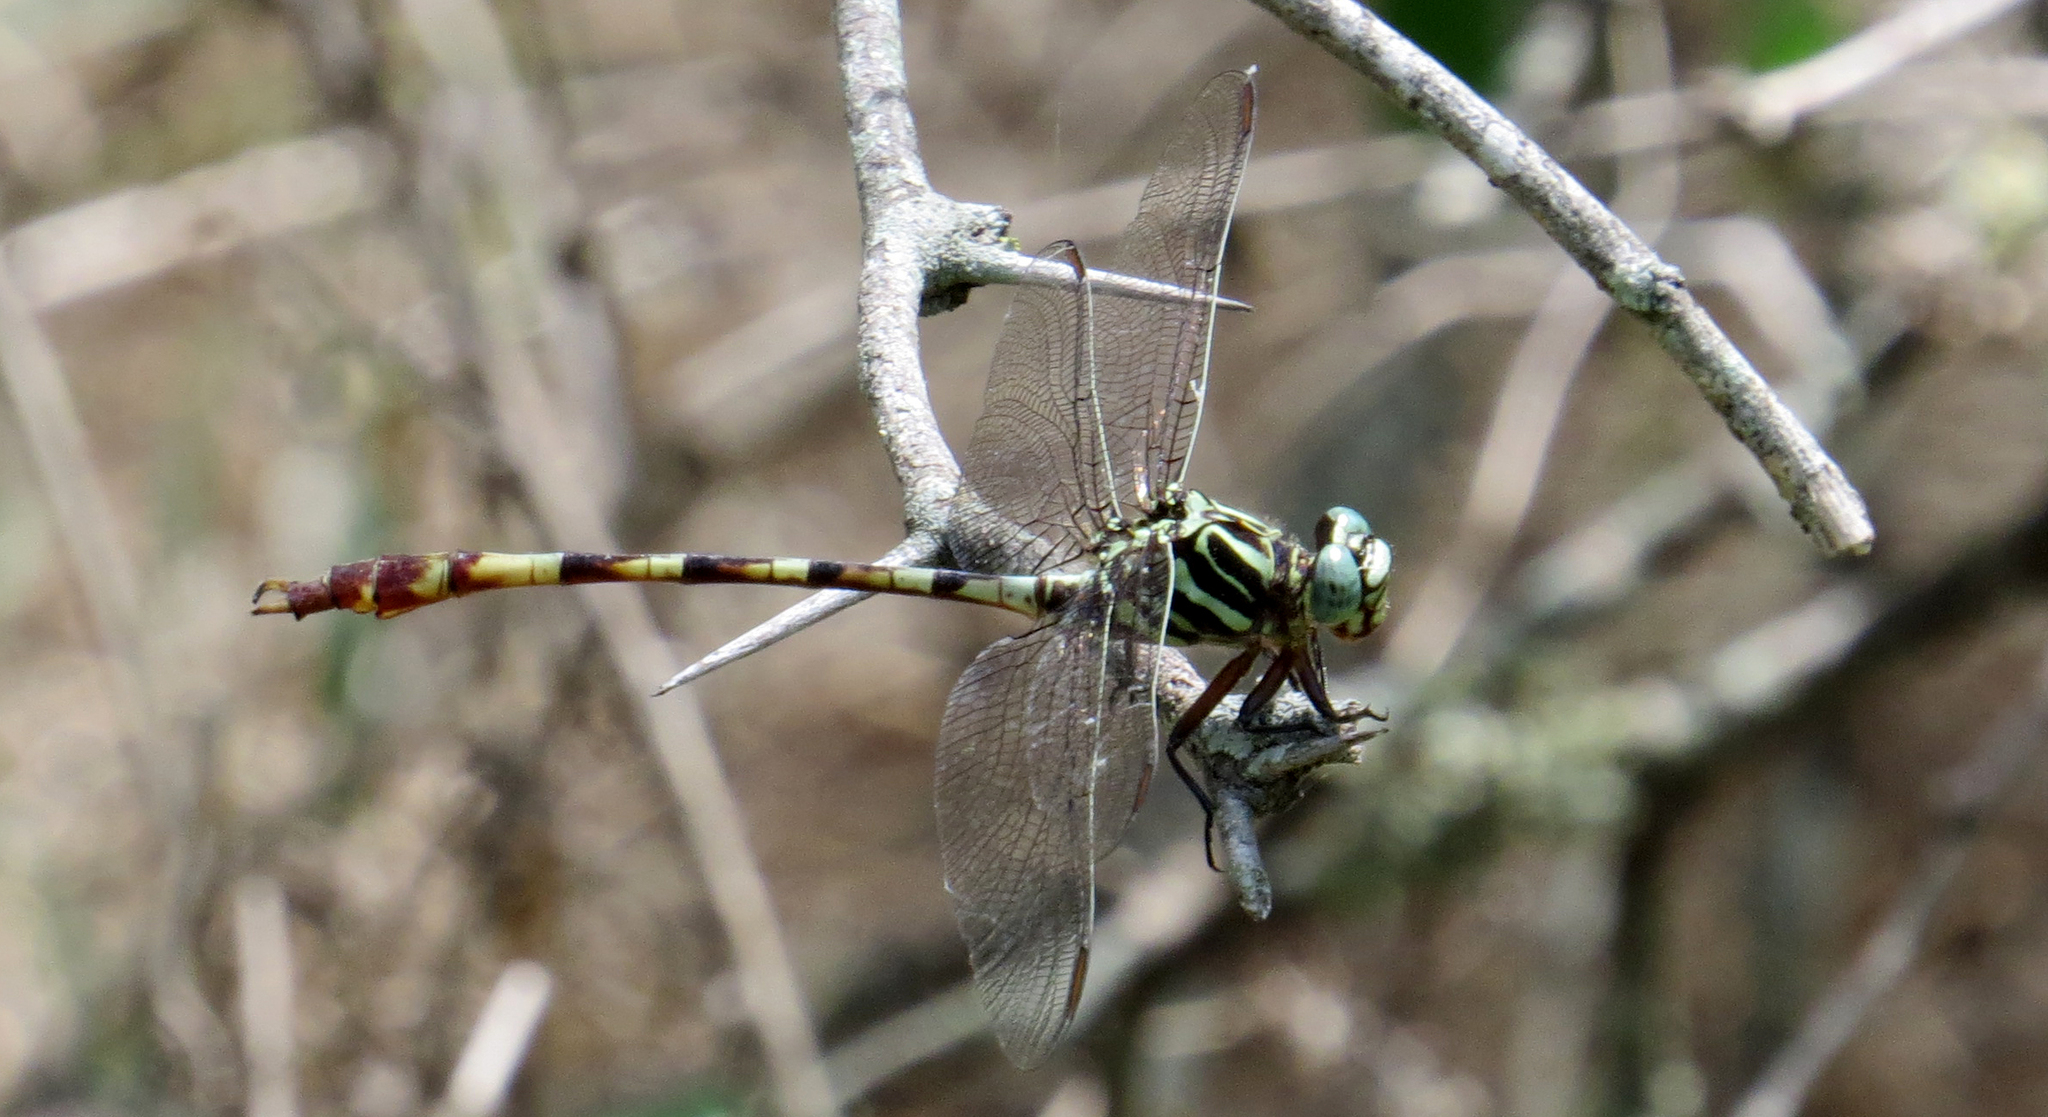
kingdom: Animalia
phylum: Arthropoda
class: Insecta
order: Odonata
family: Gomphidae
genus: Aphylla
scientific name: Aphylla angustifolia
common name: Broad-striped forceptail
